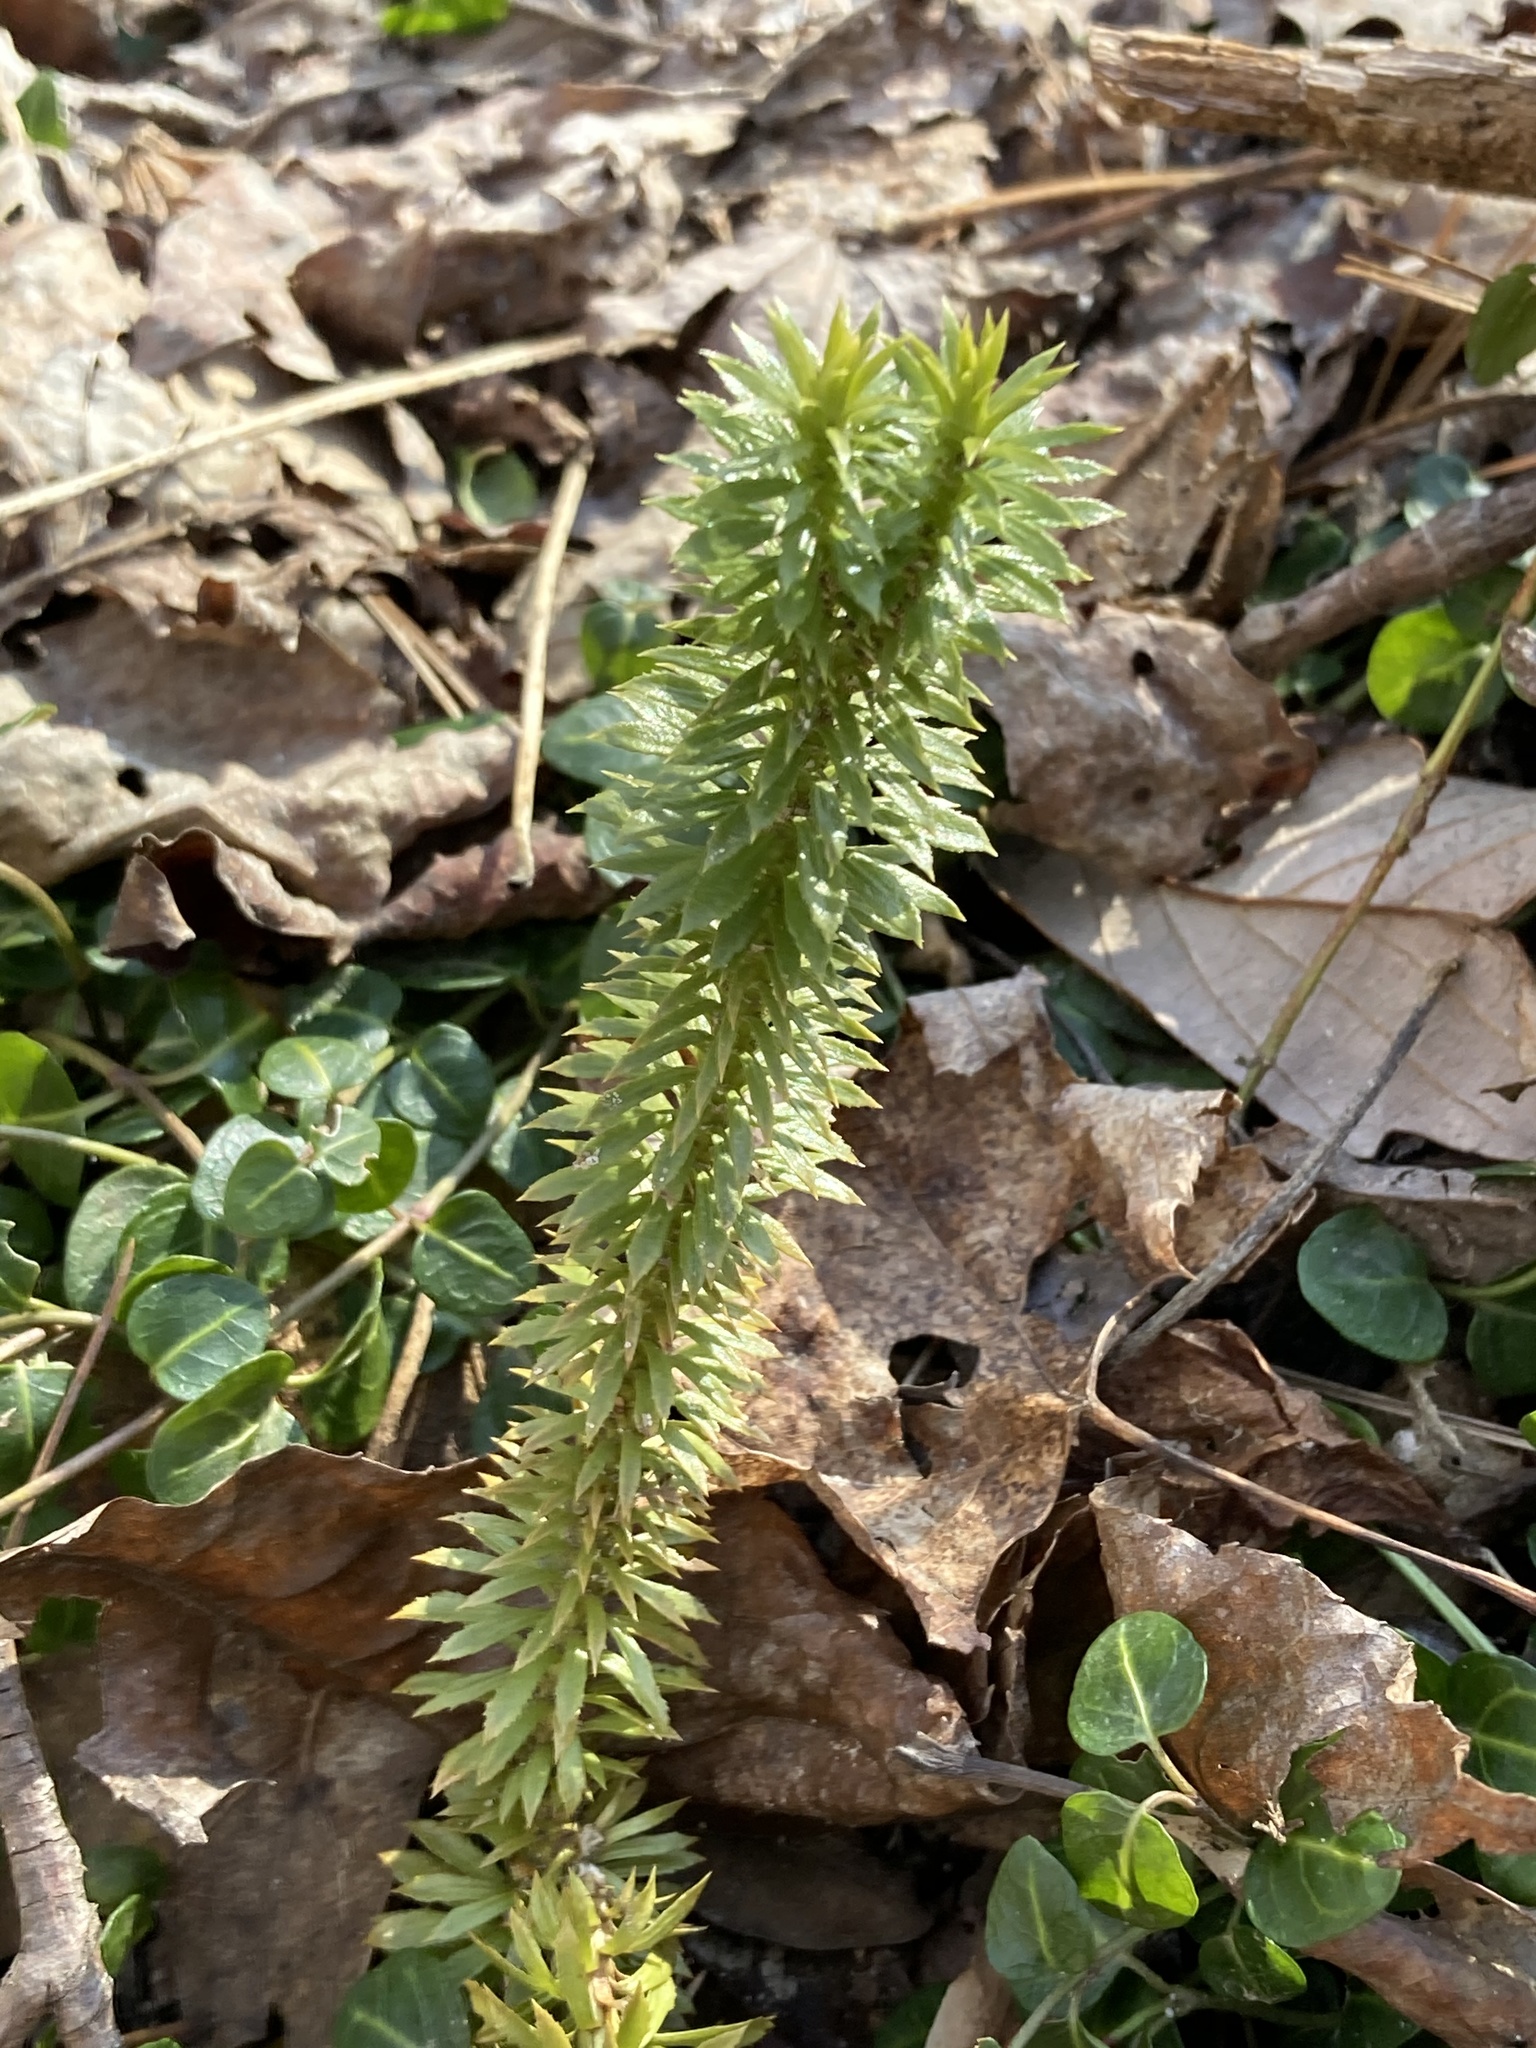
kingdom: Plantae
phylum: Tracheophyta
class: Lycopodiopsida
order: Lycopodiales
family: Lycopodiaceae
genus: Huperzia
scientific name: Huperzia lucidula
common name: Shining clubmoss
